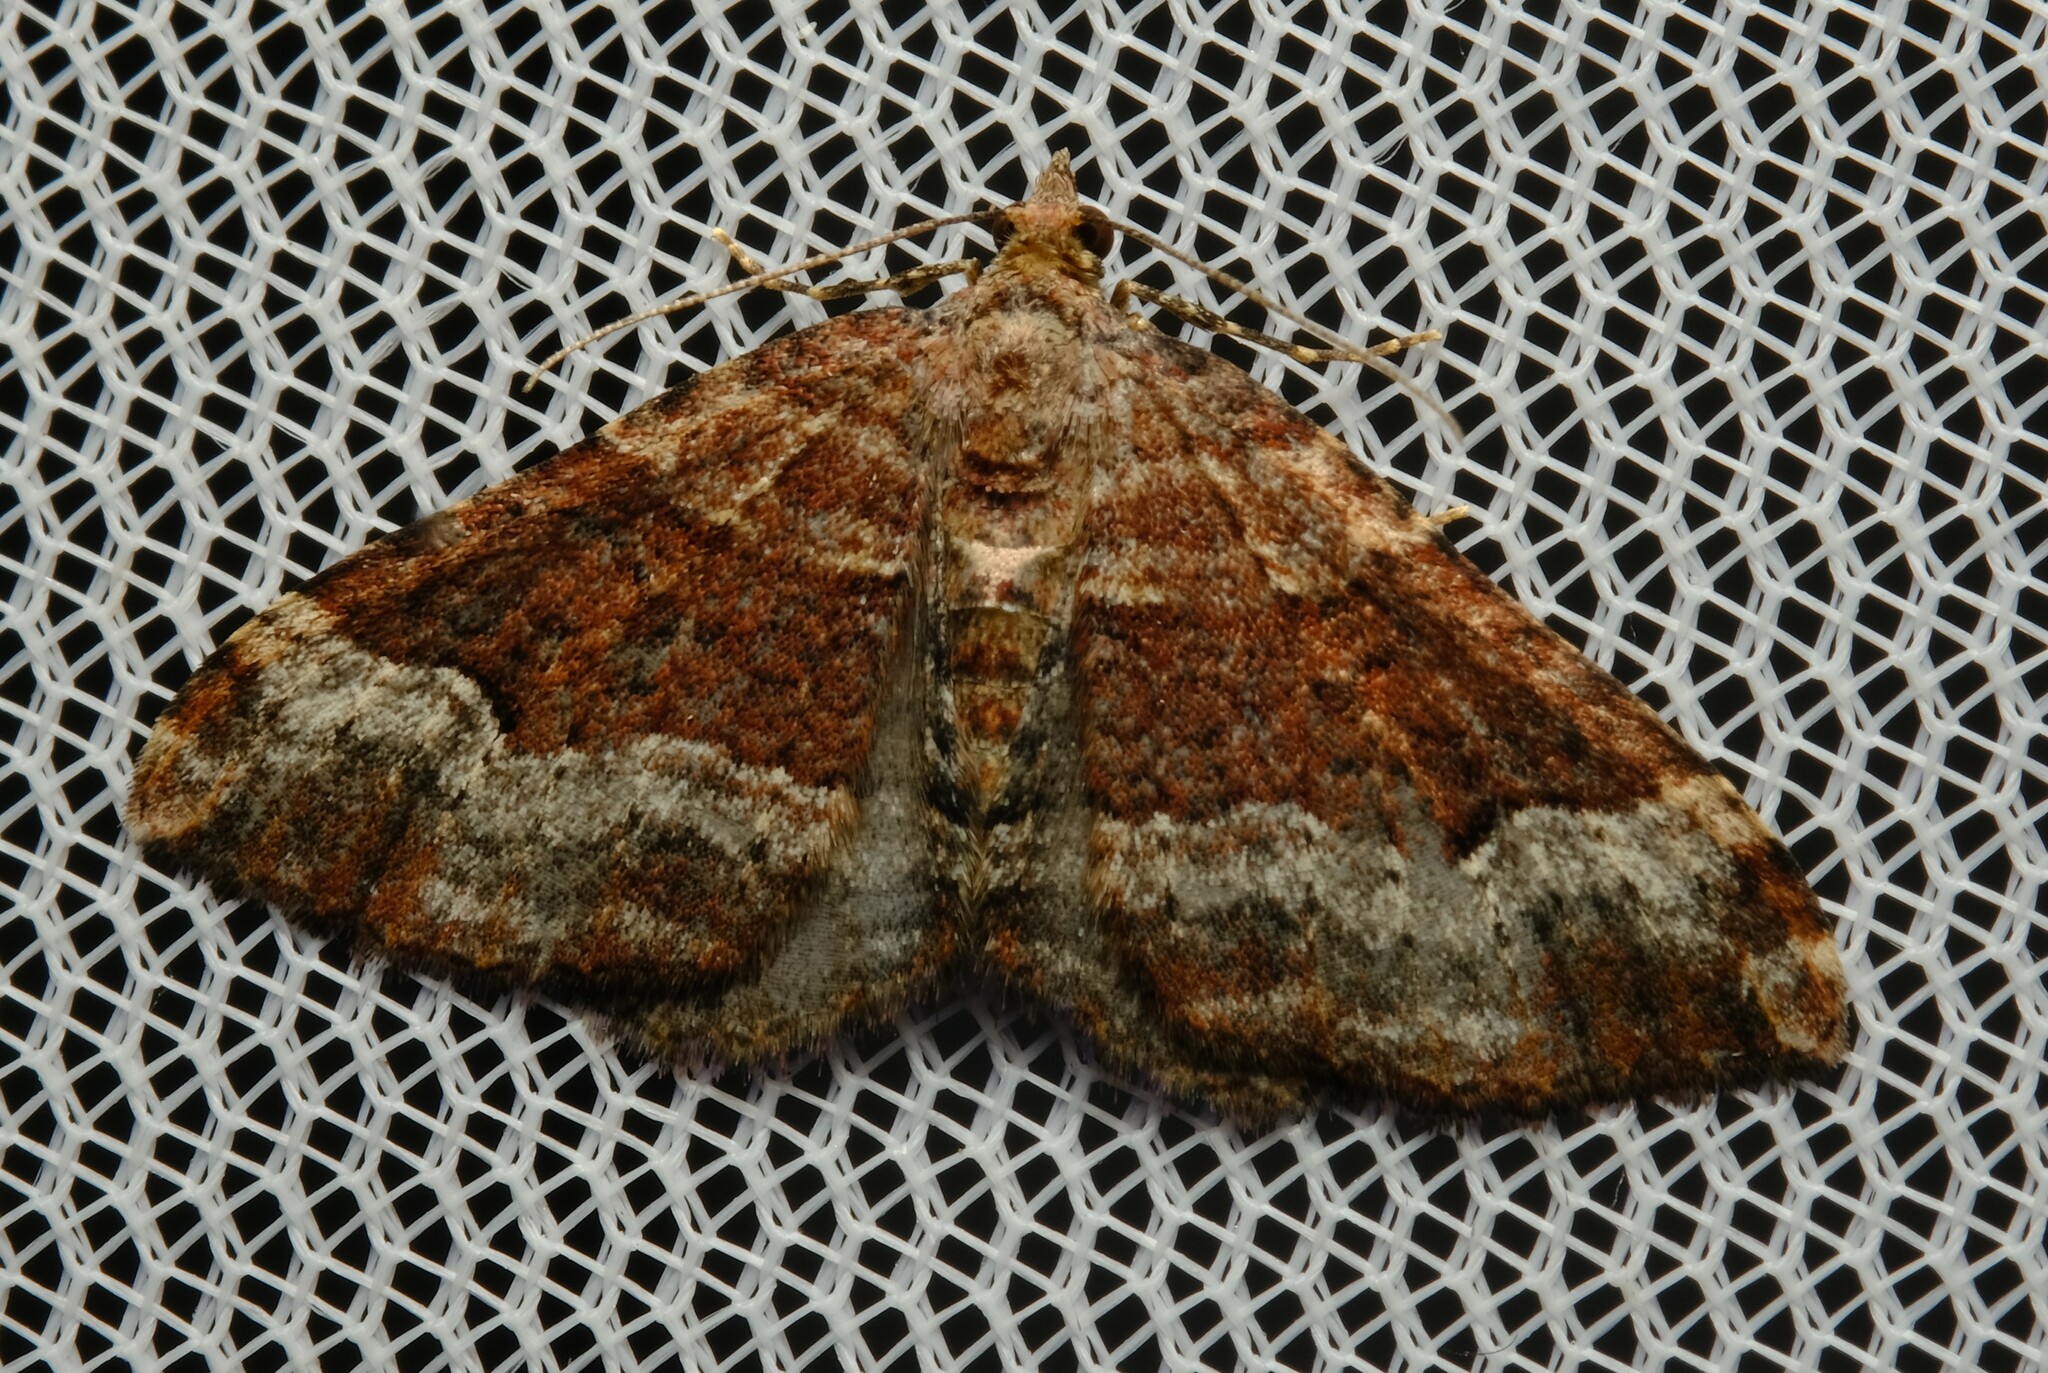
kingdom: Animalia
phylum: Arthropoda
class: Insecta
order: Lepidoptera
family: Geometridae
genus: Epyaxa
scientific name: Epyaxa subidaria
